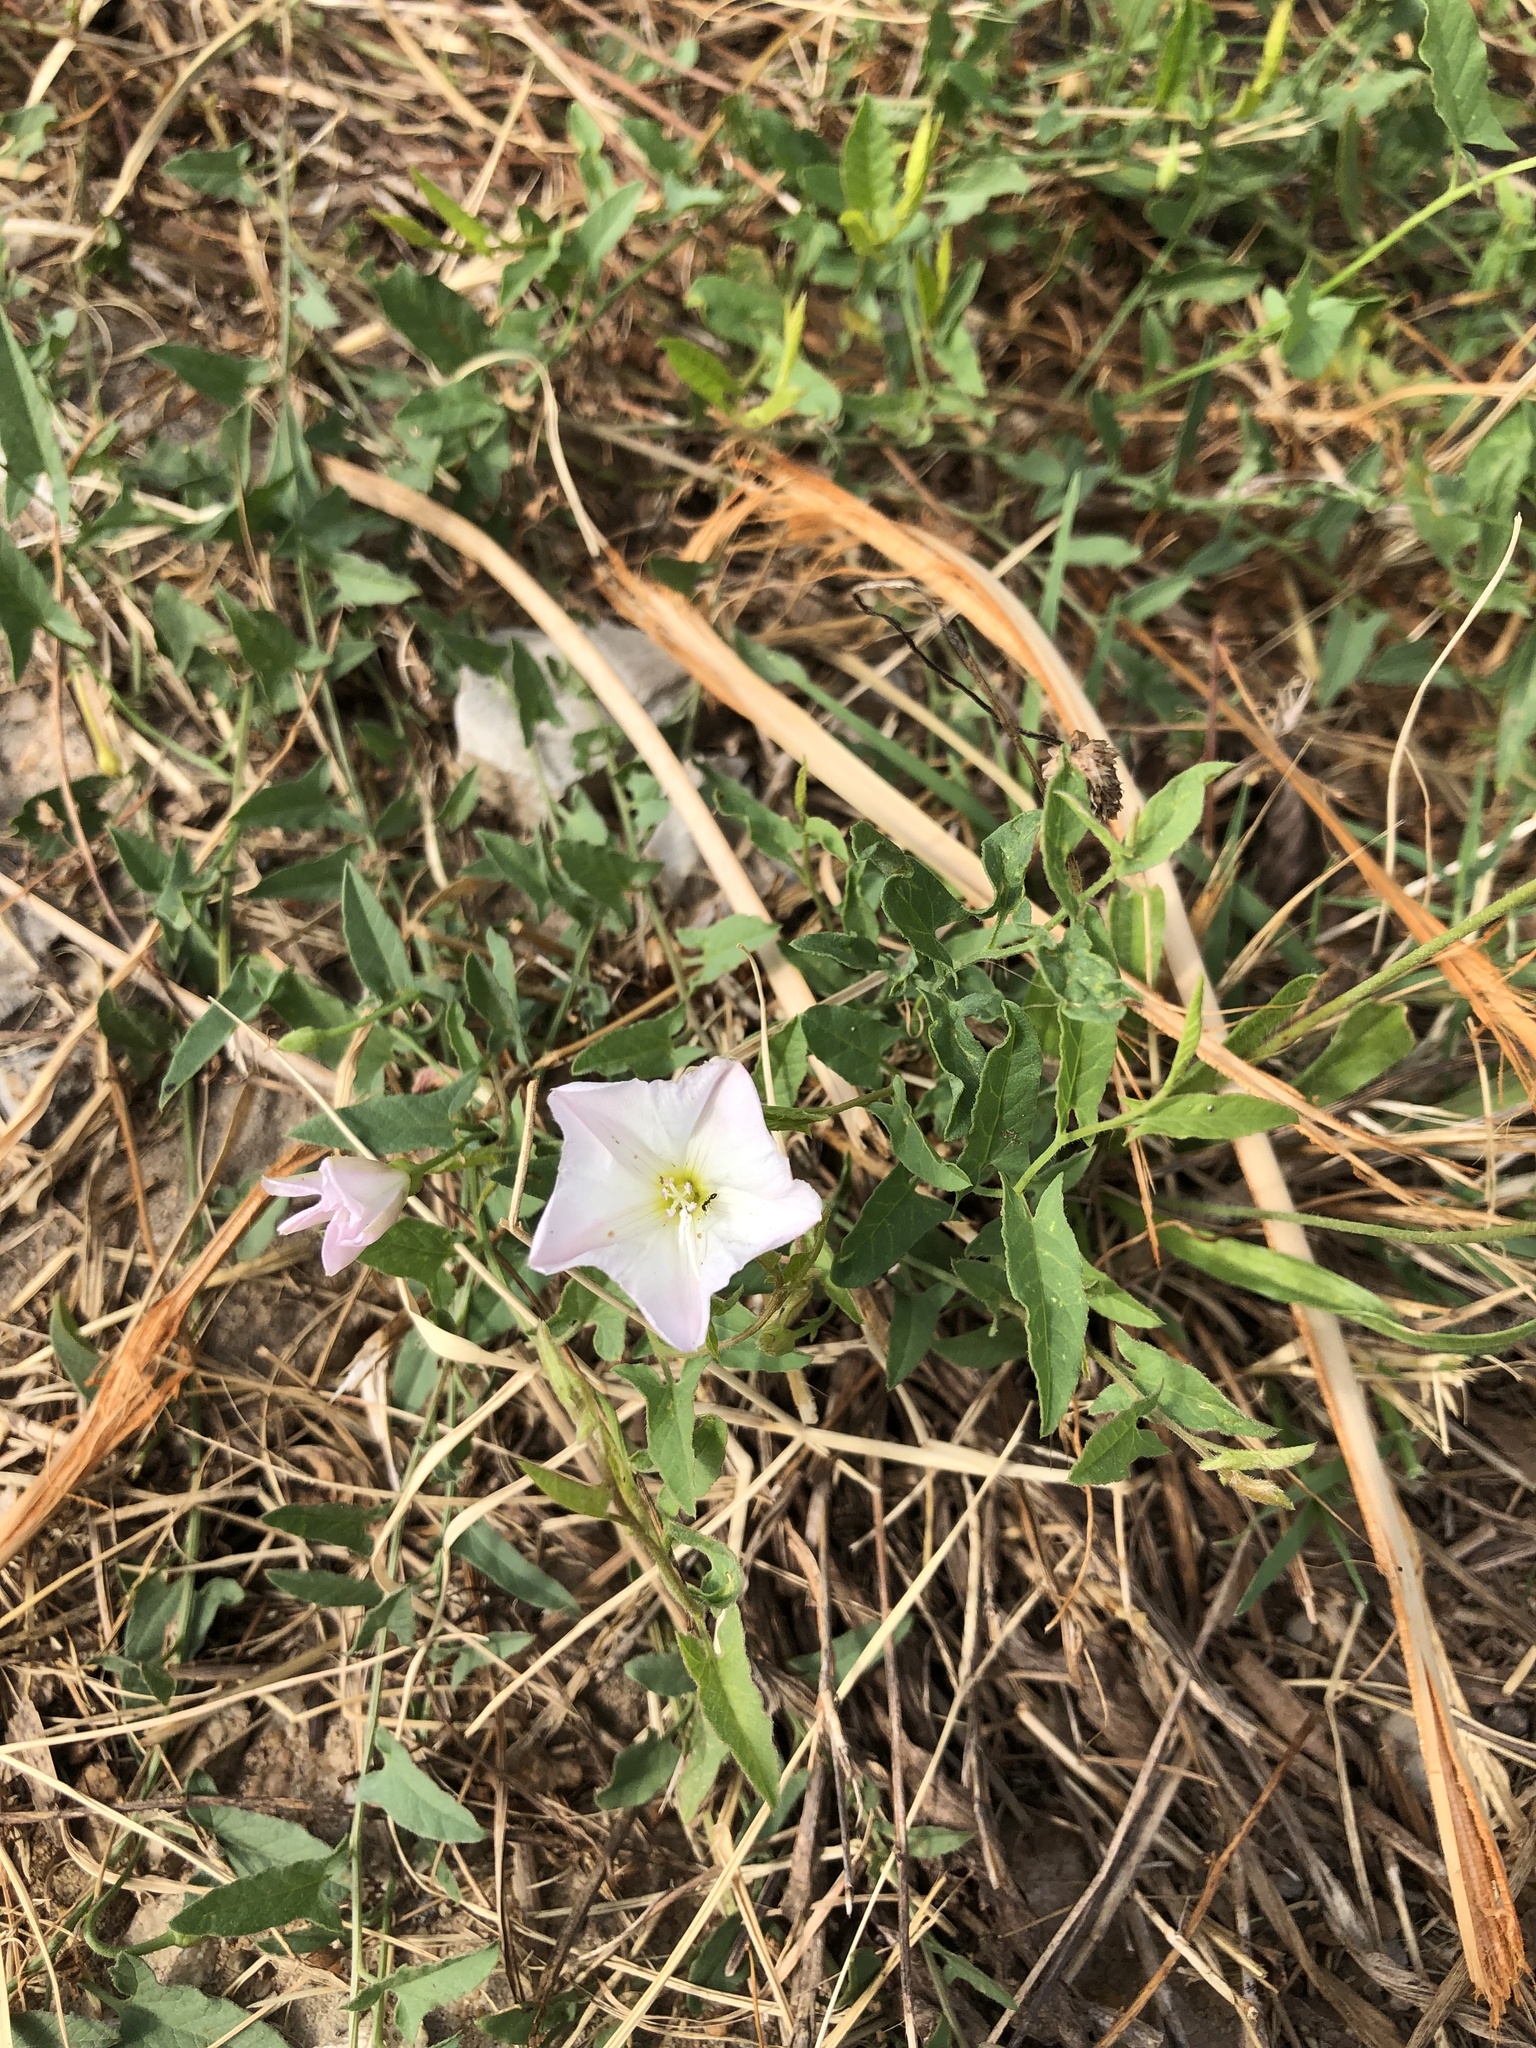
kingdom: Plantae
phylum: Tracheophyta
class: Magnoliopsida
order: Solanales
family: Convolvulaceae
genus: Convolvulus
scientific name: Convolvulus arvensis
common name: Field bindweed
